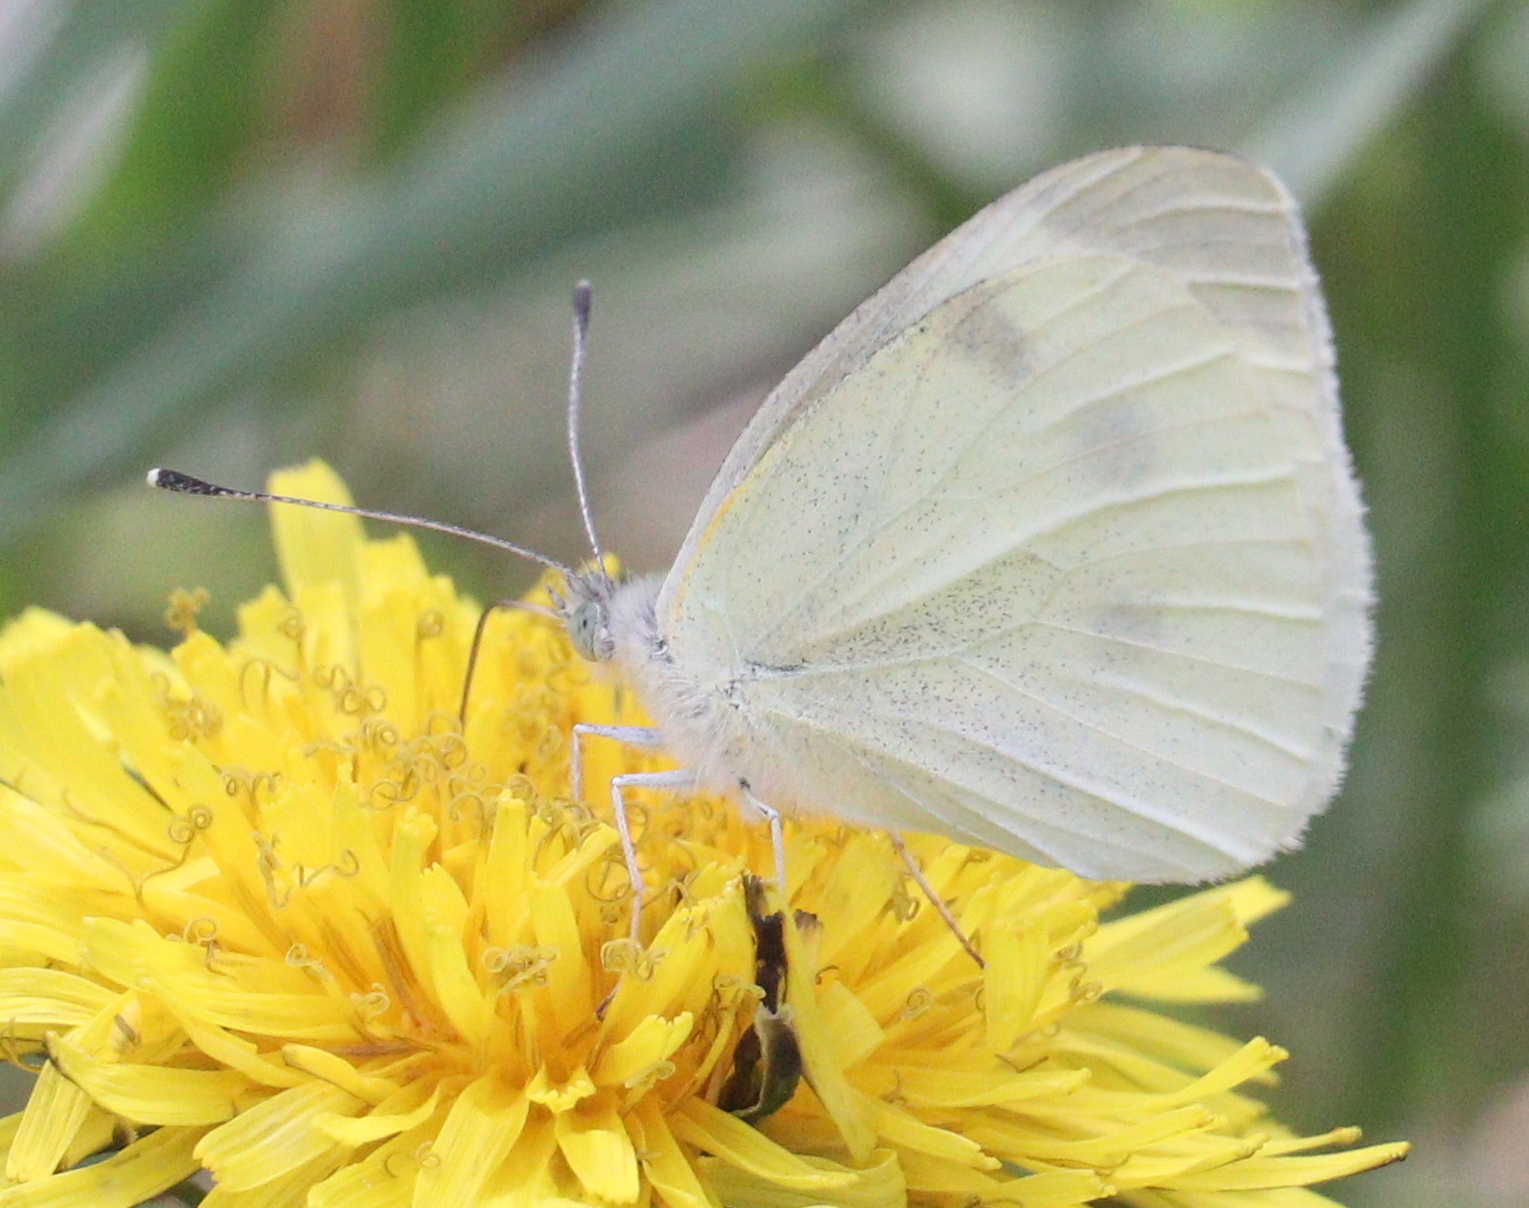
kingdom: Animalia
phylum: Arthropoda
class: Insecta
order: Lepidoptera
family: Pieridae
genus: Pieris
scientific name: Pieris rapae
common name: Small white
